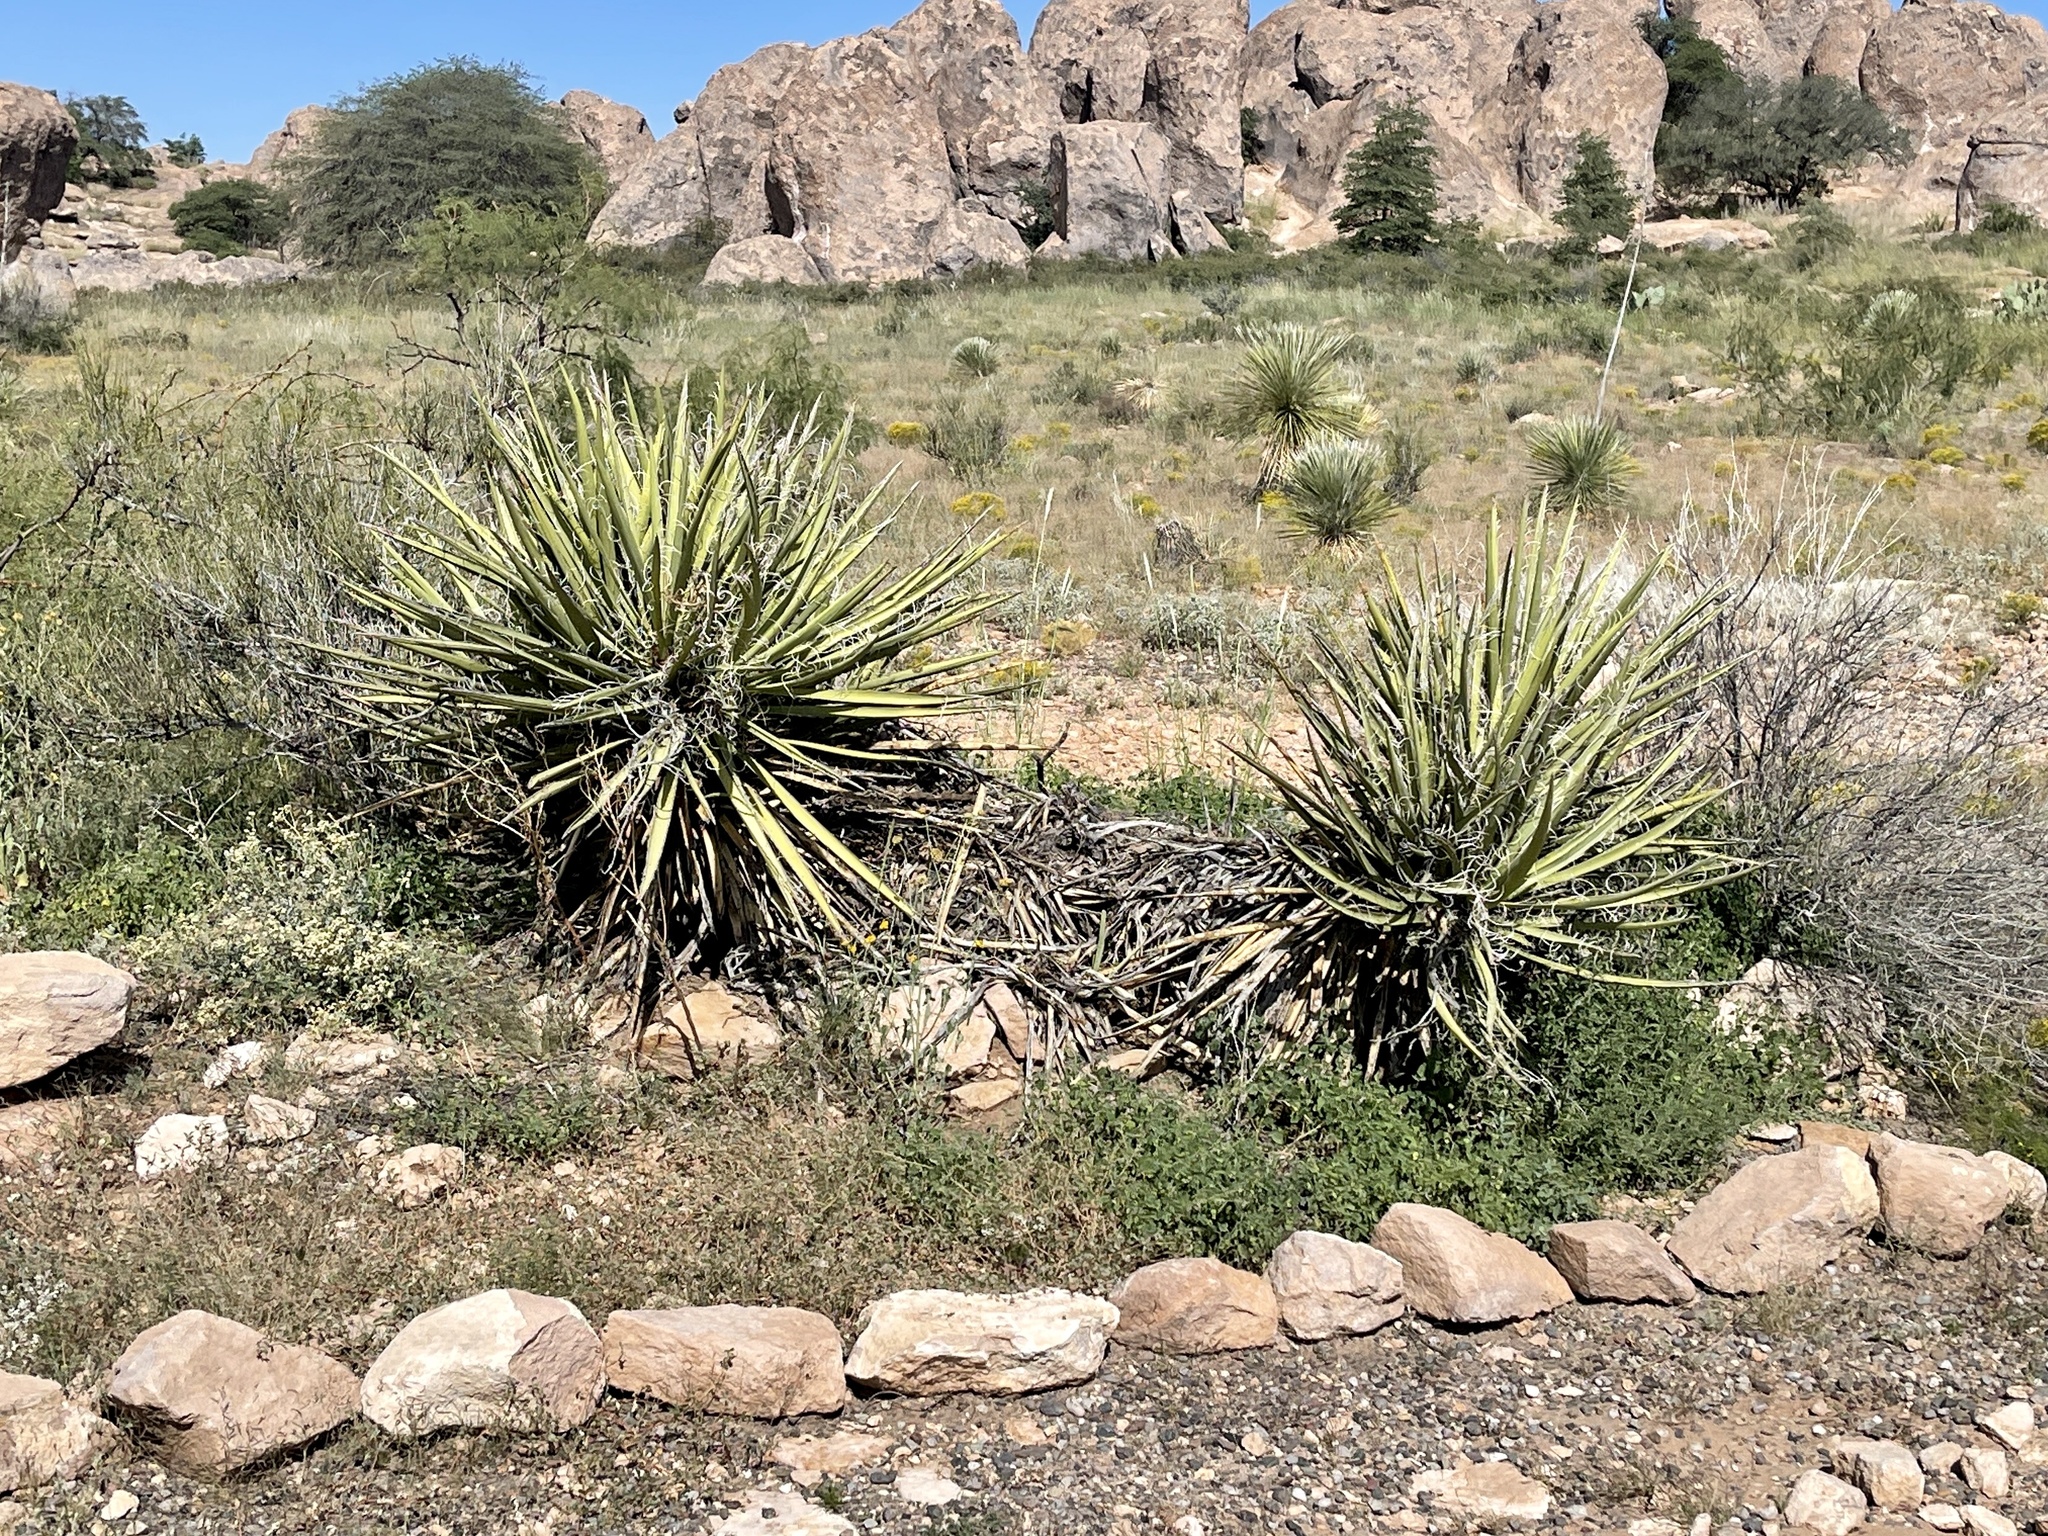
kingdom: Plantae
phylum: Tracheophyta
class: Liliopsida
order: Asparagales
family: Asparagaceae
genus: Yucca
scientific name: Yucca baccata
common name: Banana yucca
